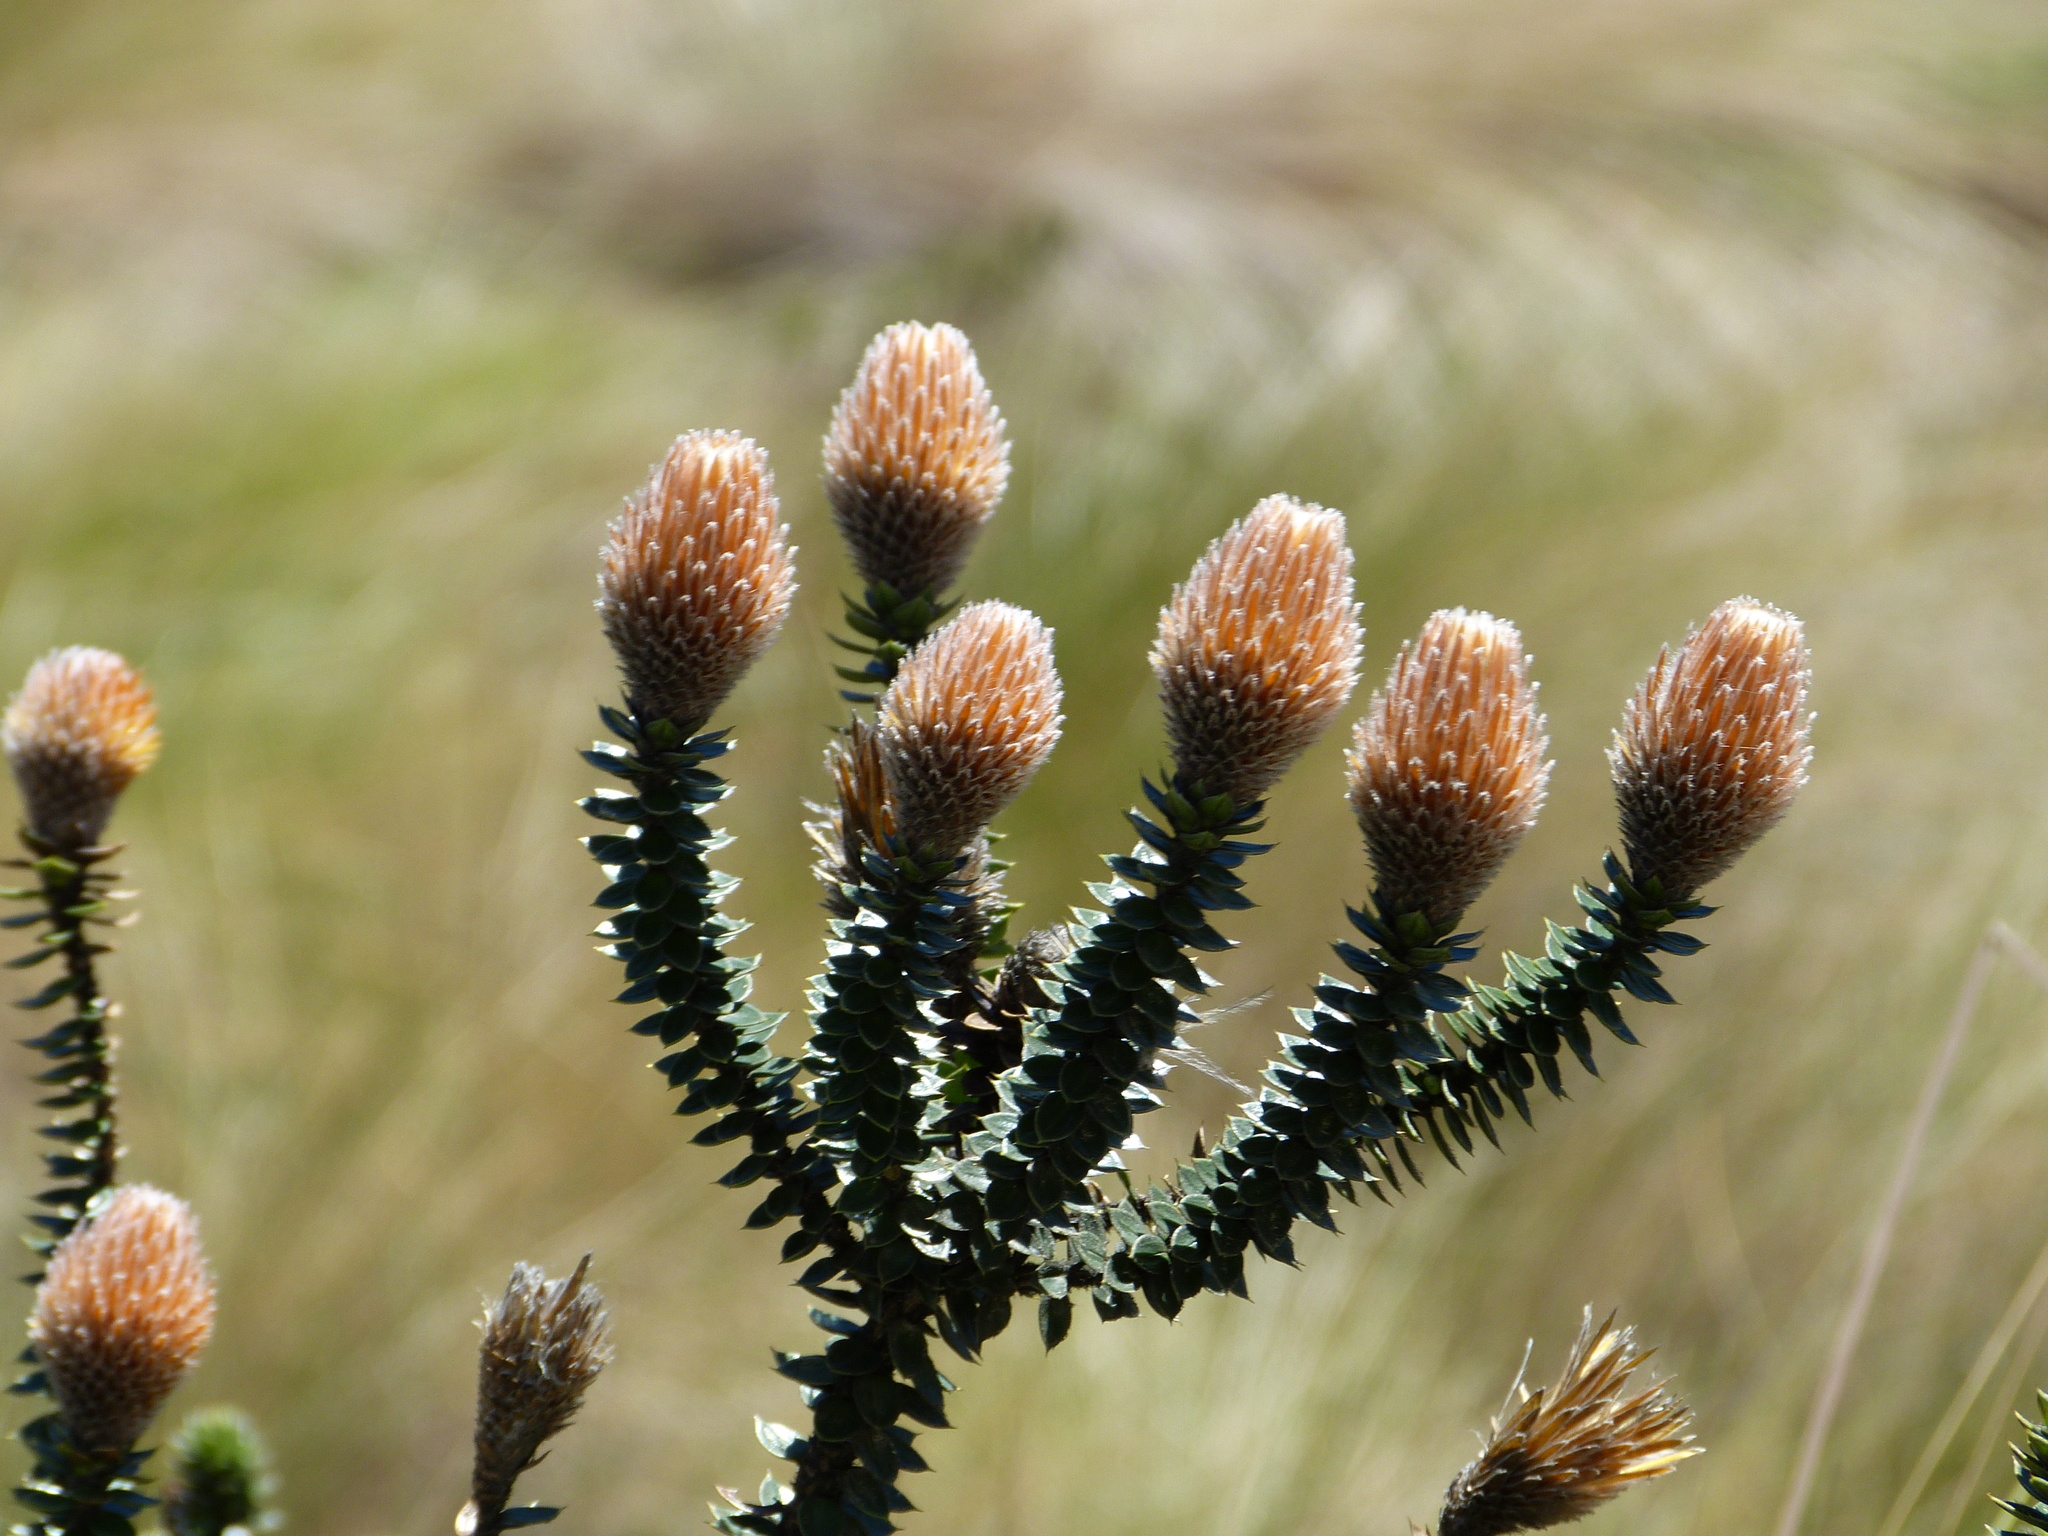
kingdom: Plantae
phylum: Tracheophyta
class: Magnoliopsida
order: Asterales
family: Asteraceae
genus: Chuquiraga
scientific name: Chuquiraga jussieui
